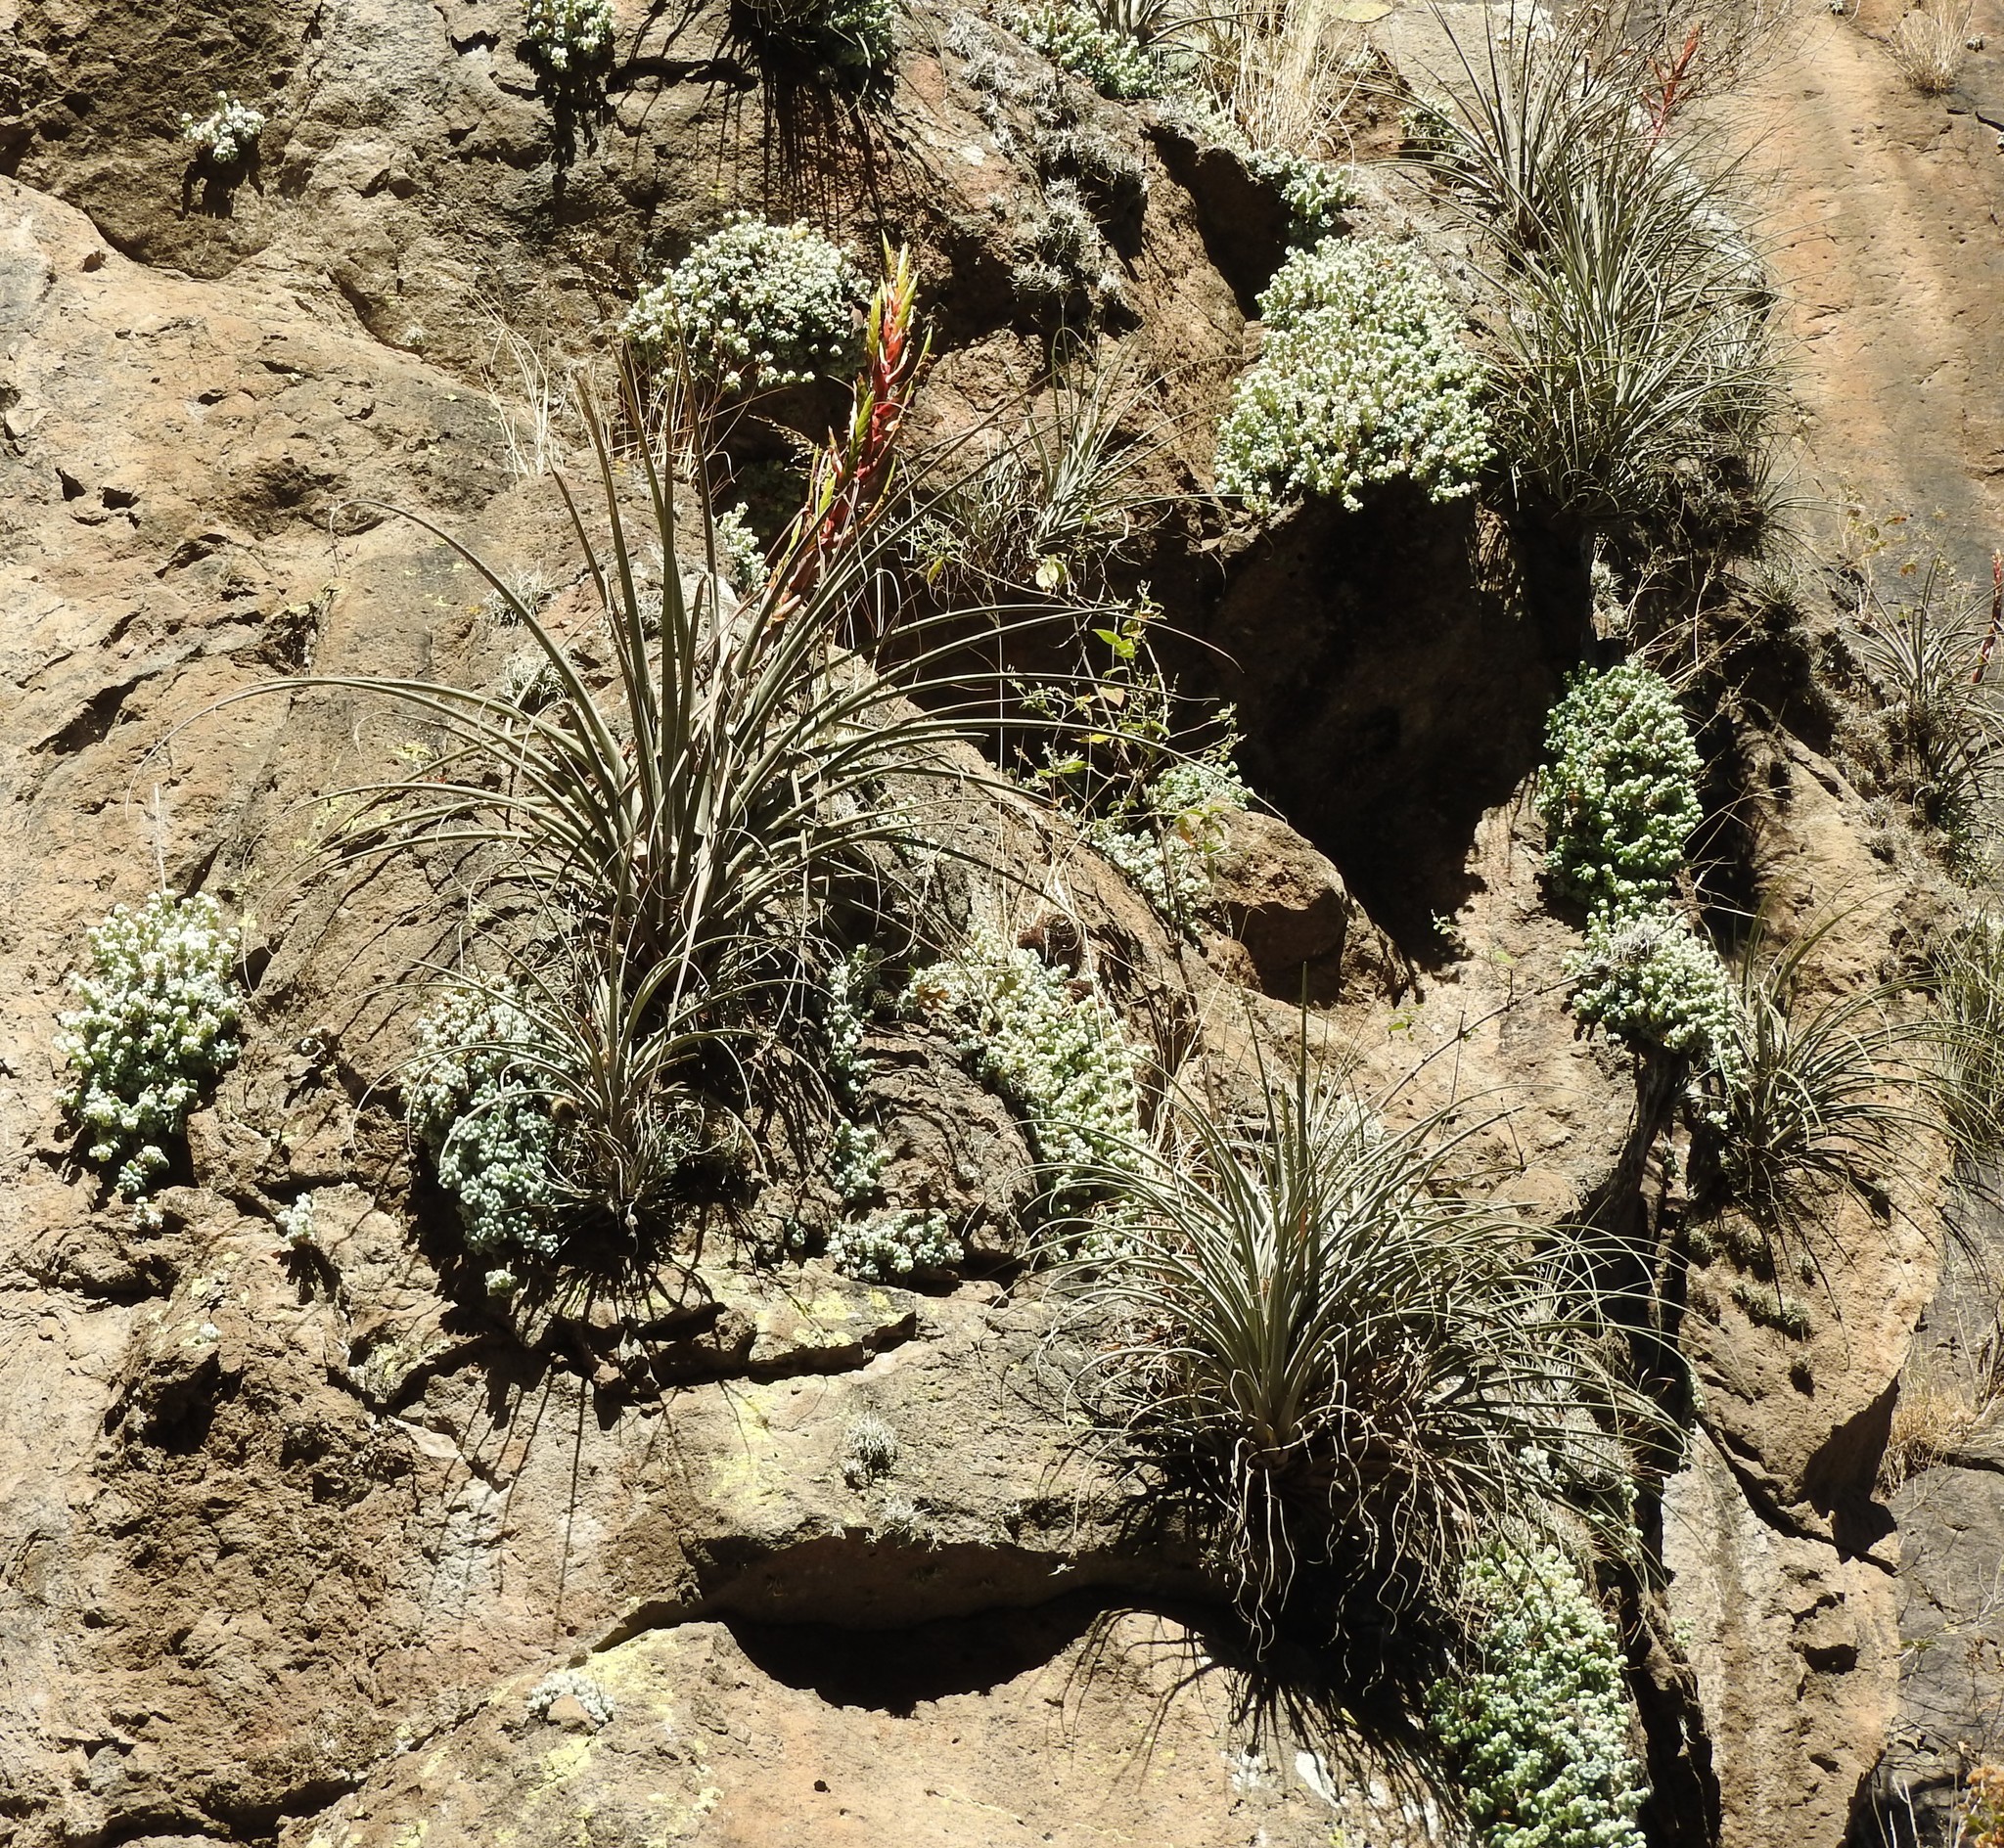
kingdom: Plantae
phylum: Tracheophyta
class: Liliopsida
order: Poales
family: Bromeliaceae
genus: Tillandsia
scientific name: Tillandsia parryi
